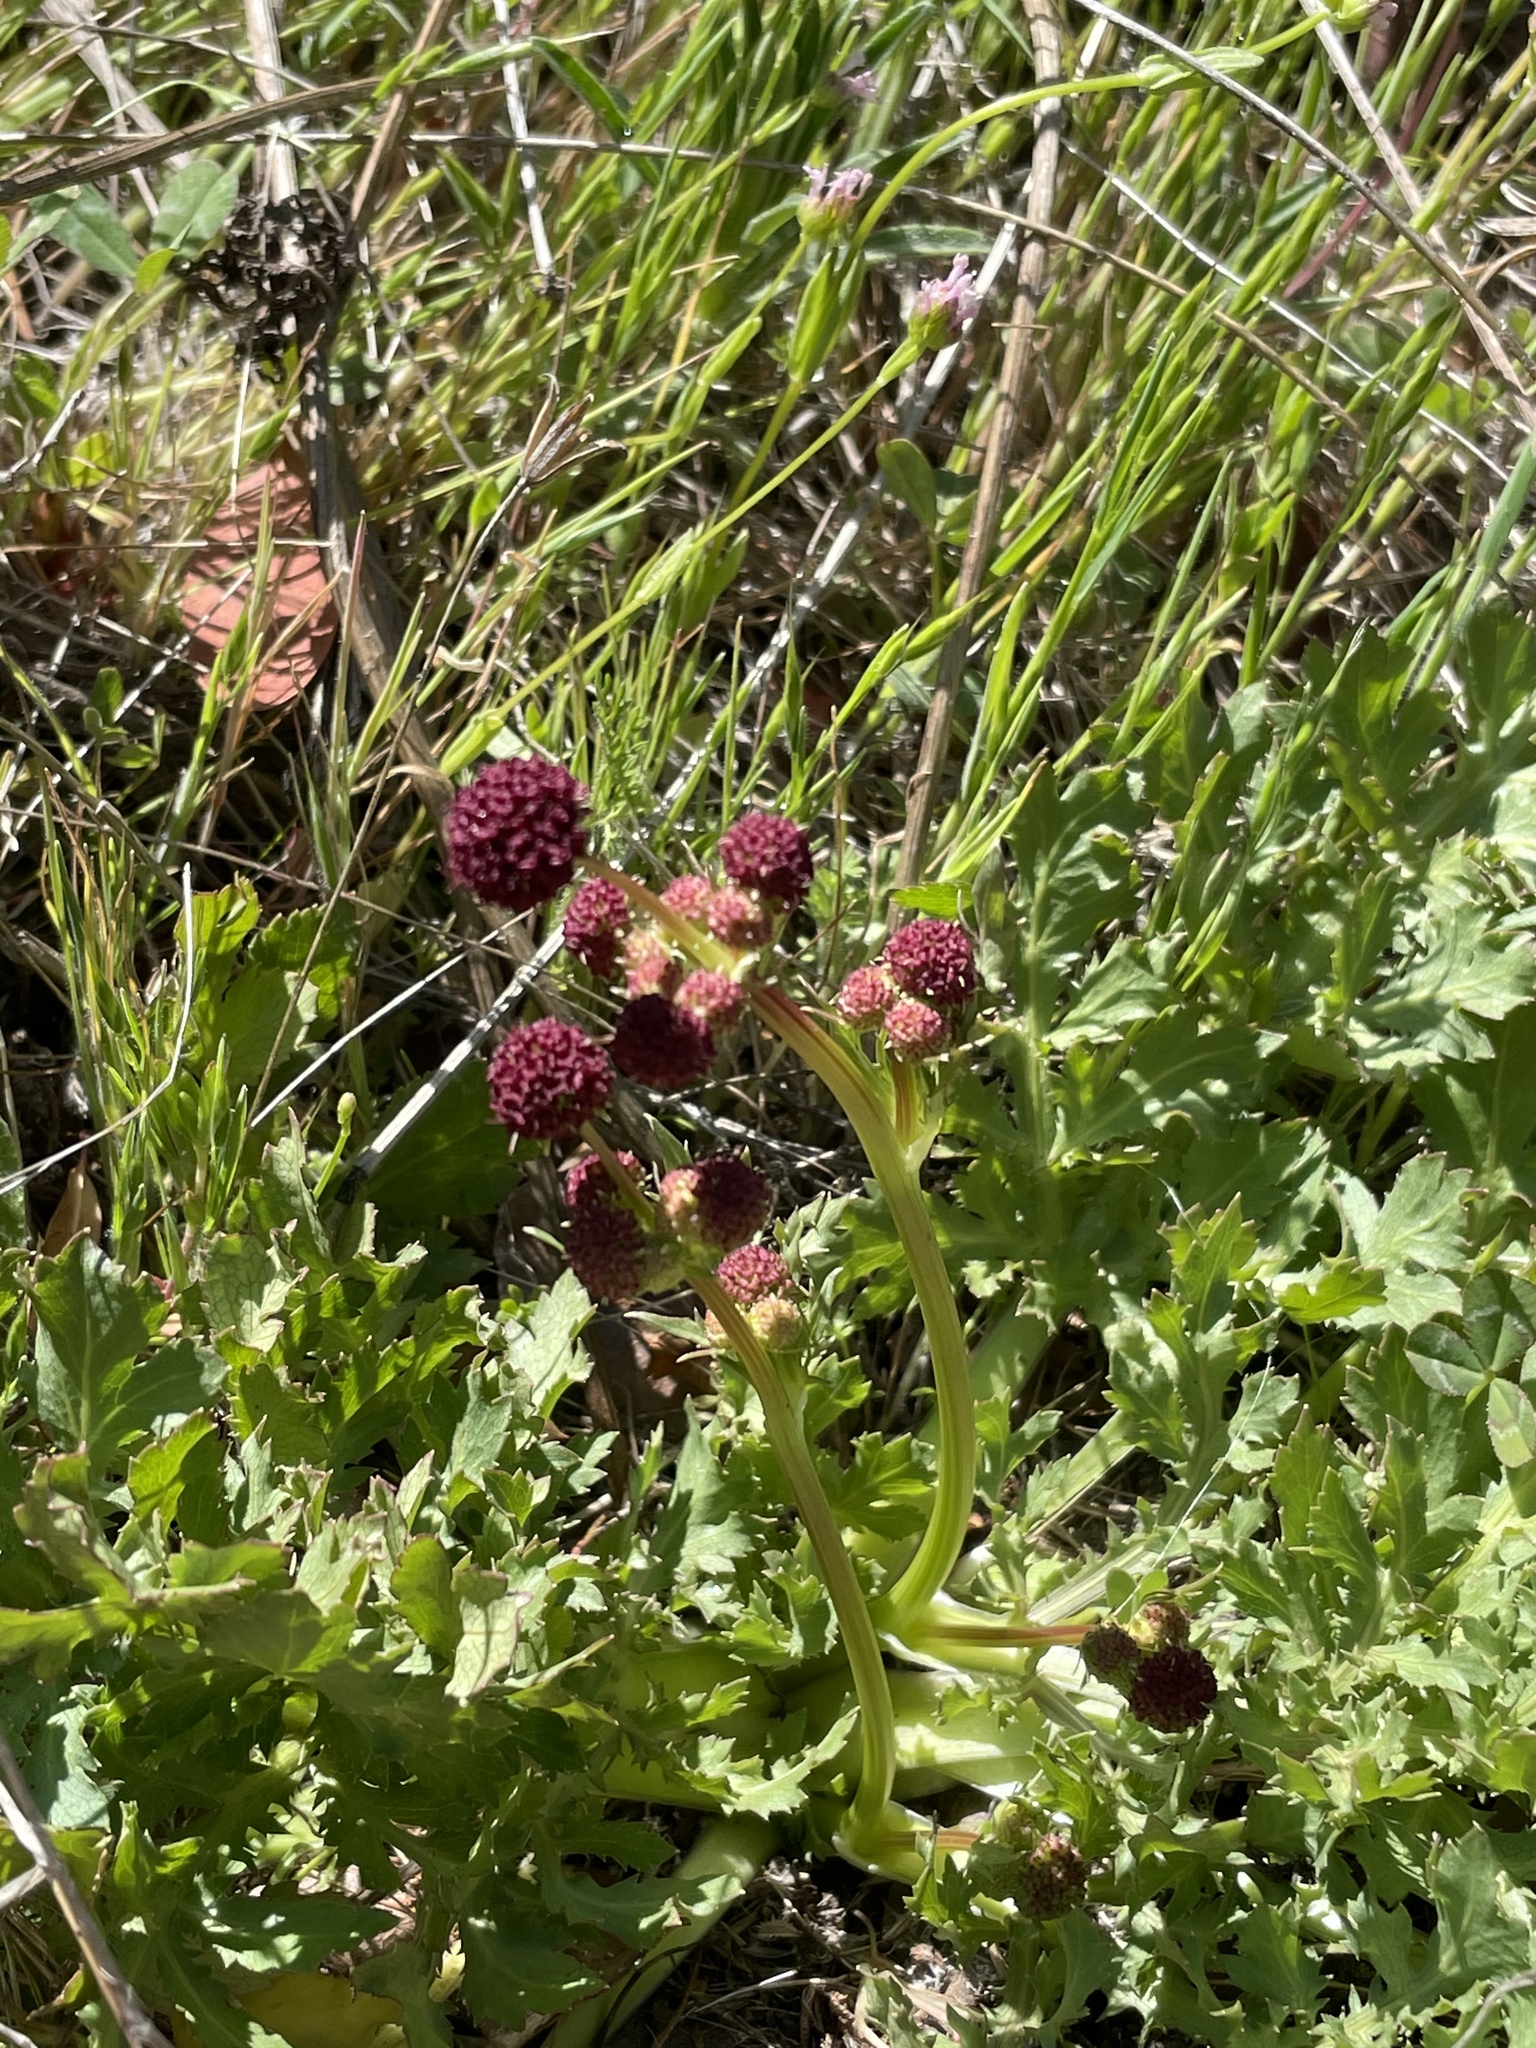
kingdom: Plantae
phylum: Tracheophyta
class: Magnoliopsida
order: Apiales
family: Apiaceae
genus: Sanicula
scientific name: Sanicula bipinnatifida
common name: Shoe-buttons
